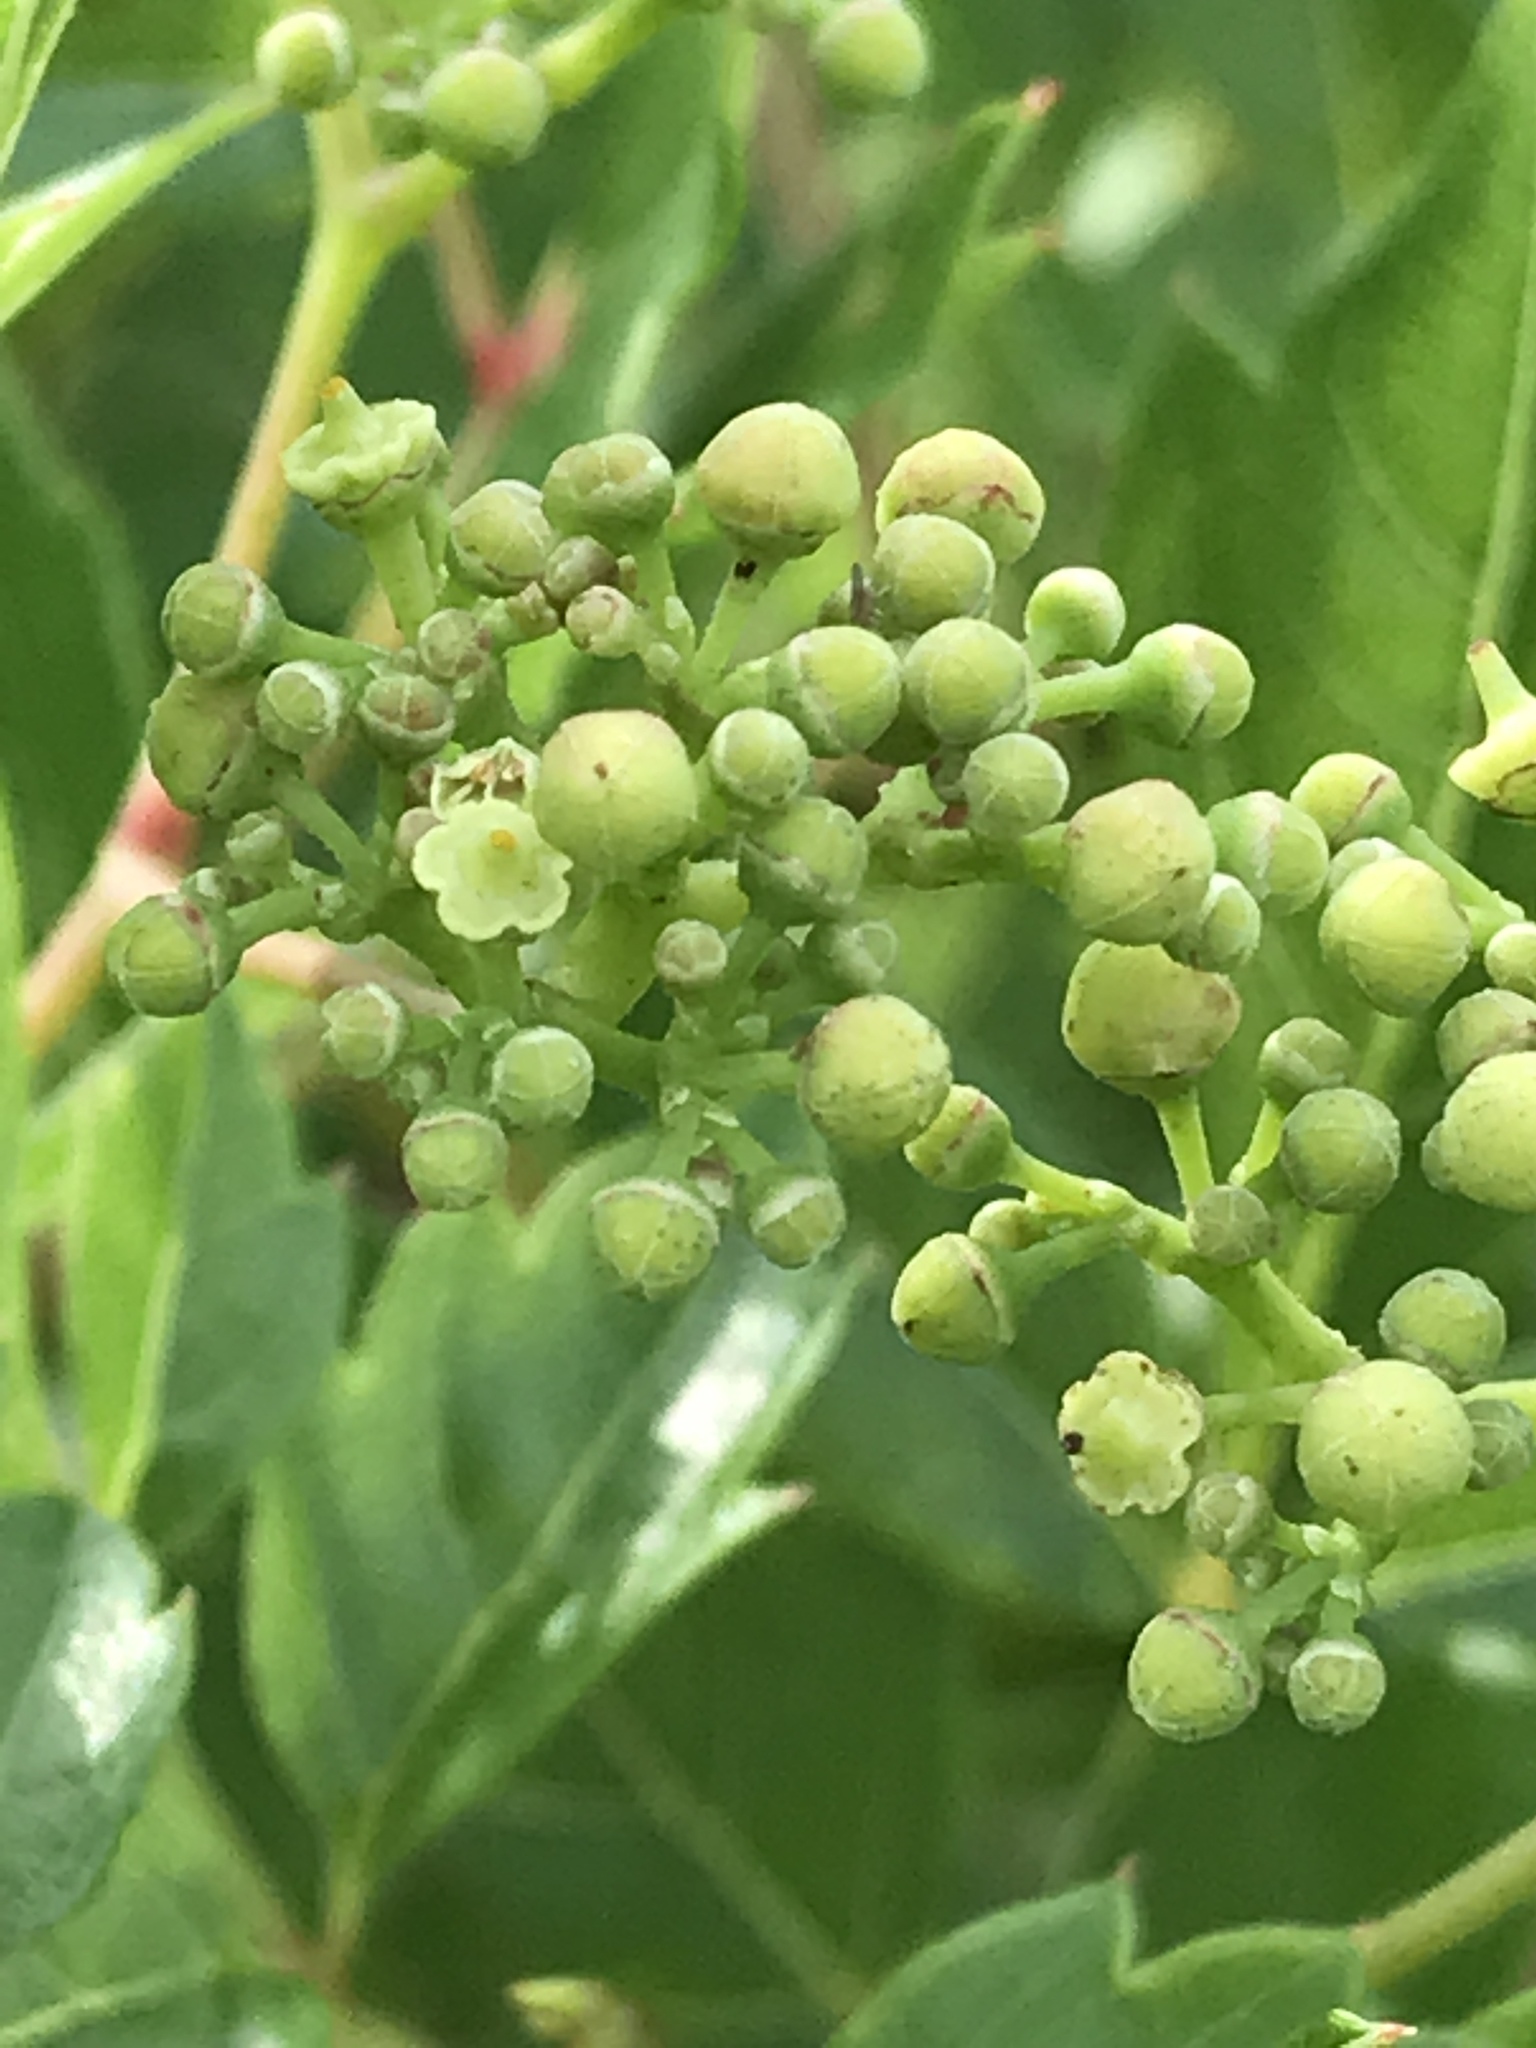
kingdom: Plantae
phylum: Tracheophyta
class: Magnoliopsida
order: Vitales
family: Vitaceae
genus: Nekemias
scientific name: Nekemias arborea
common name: Peppervine
